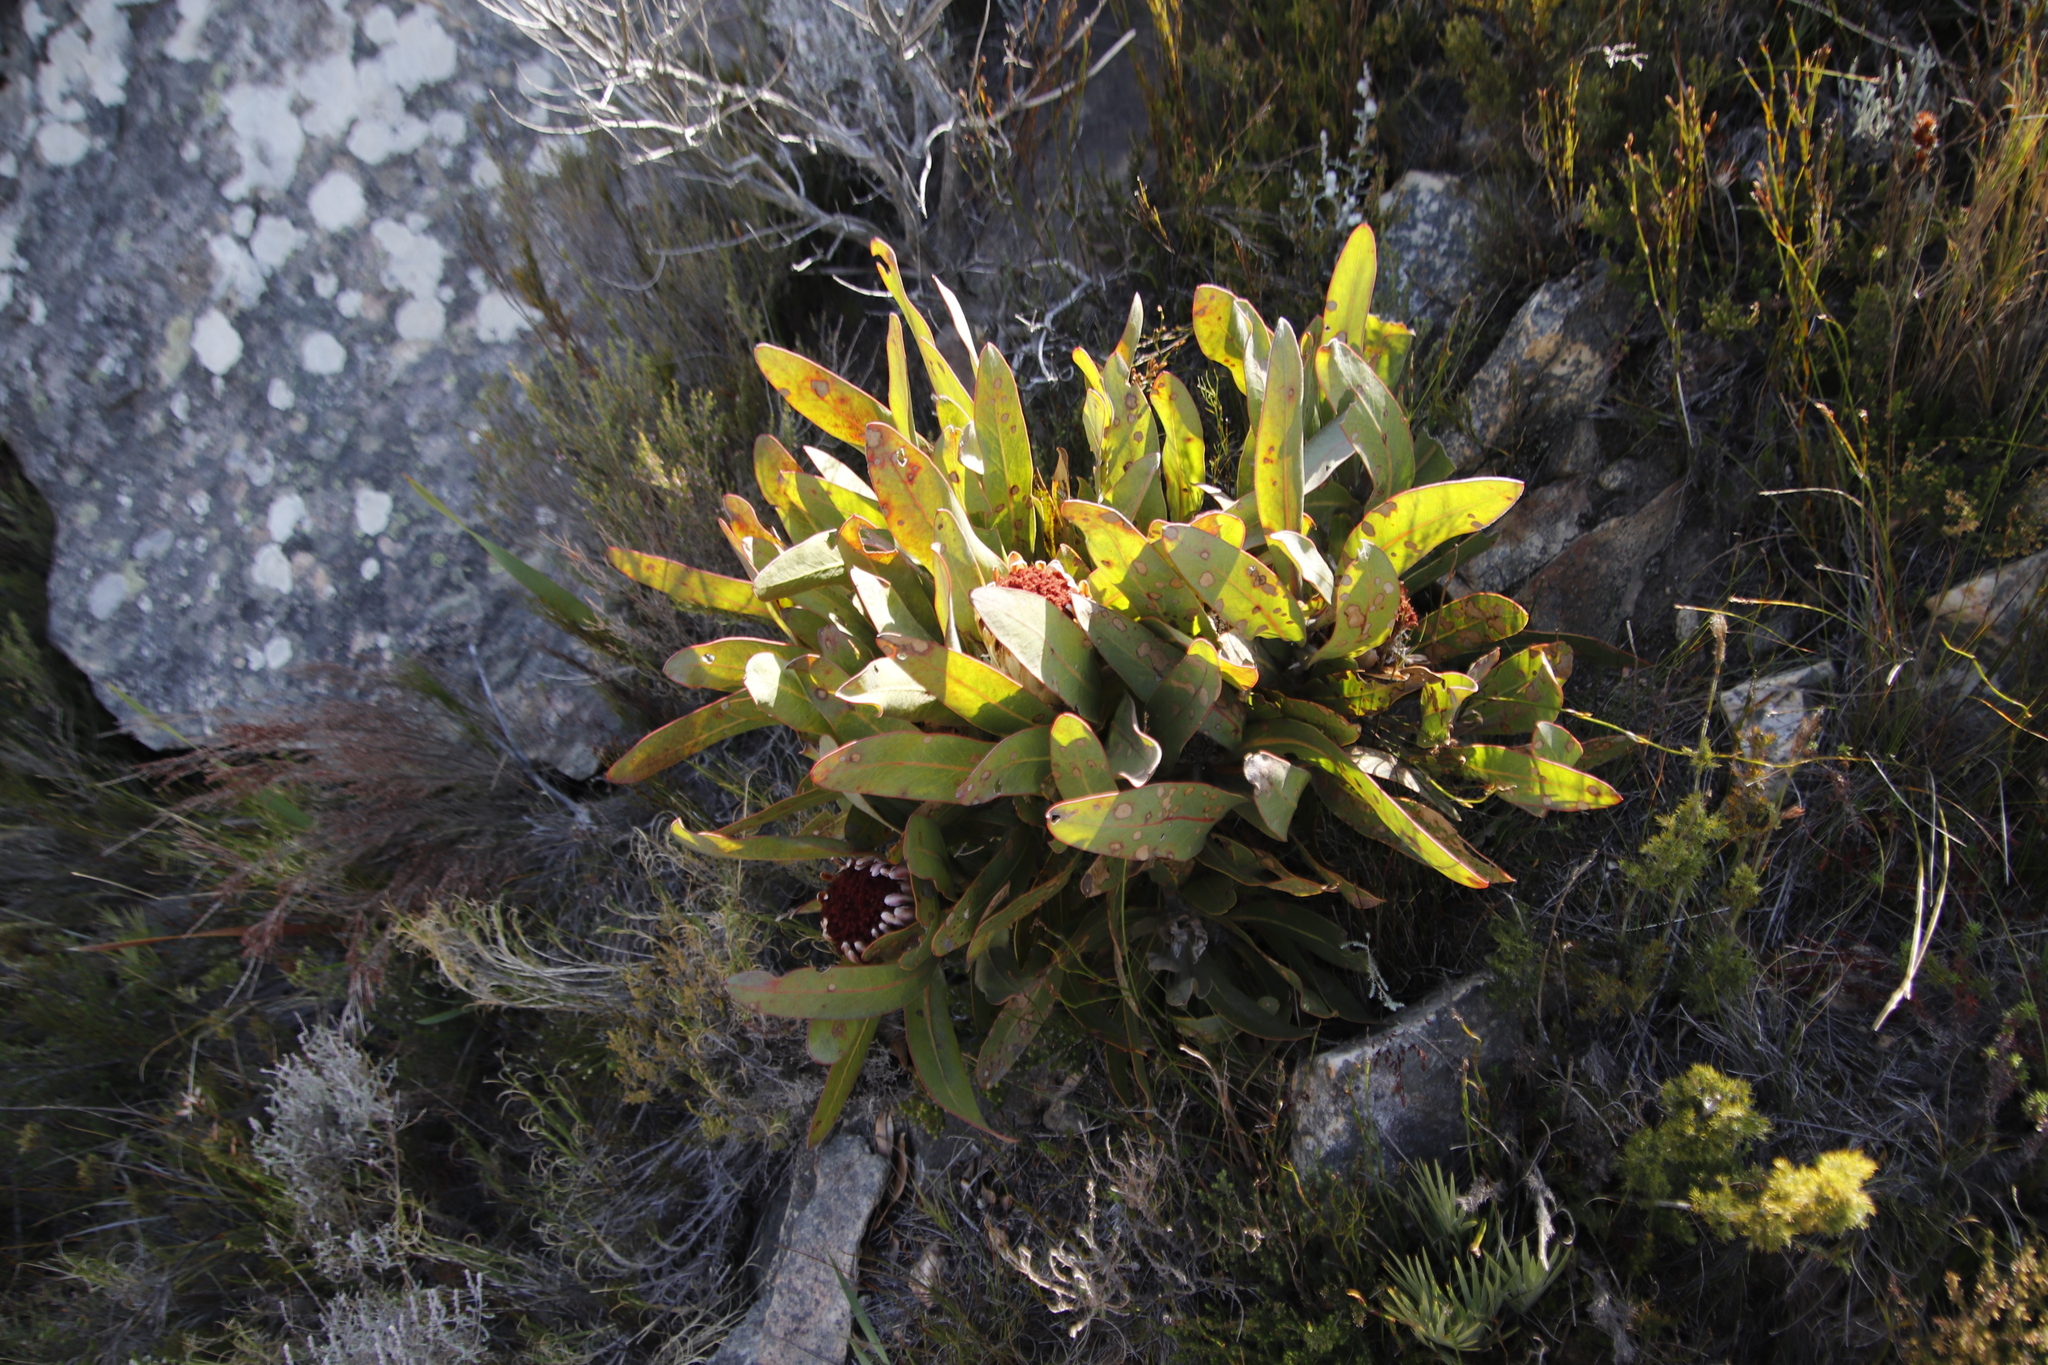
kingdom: Plantae
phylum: Tracheophyta
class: Magnoliopsida
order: Proteales
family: Proteaceae
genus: Protea
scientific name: Protea lorifolia
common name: Strap-leaved protea
